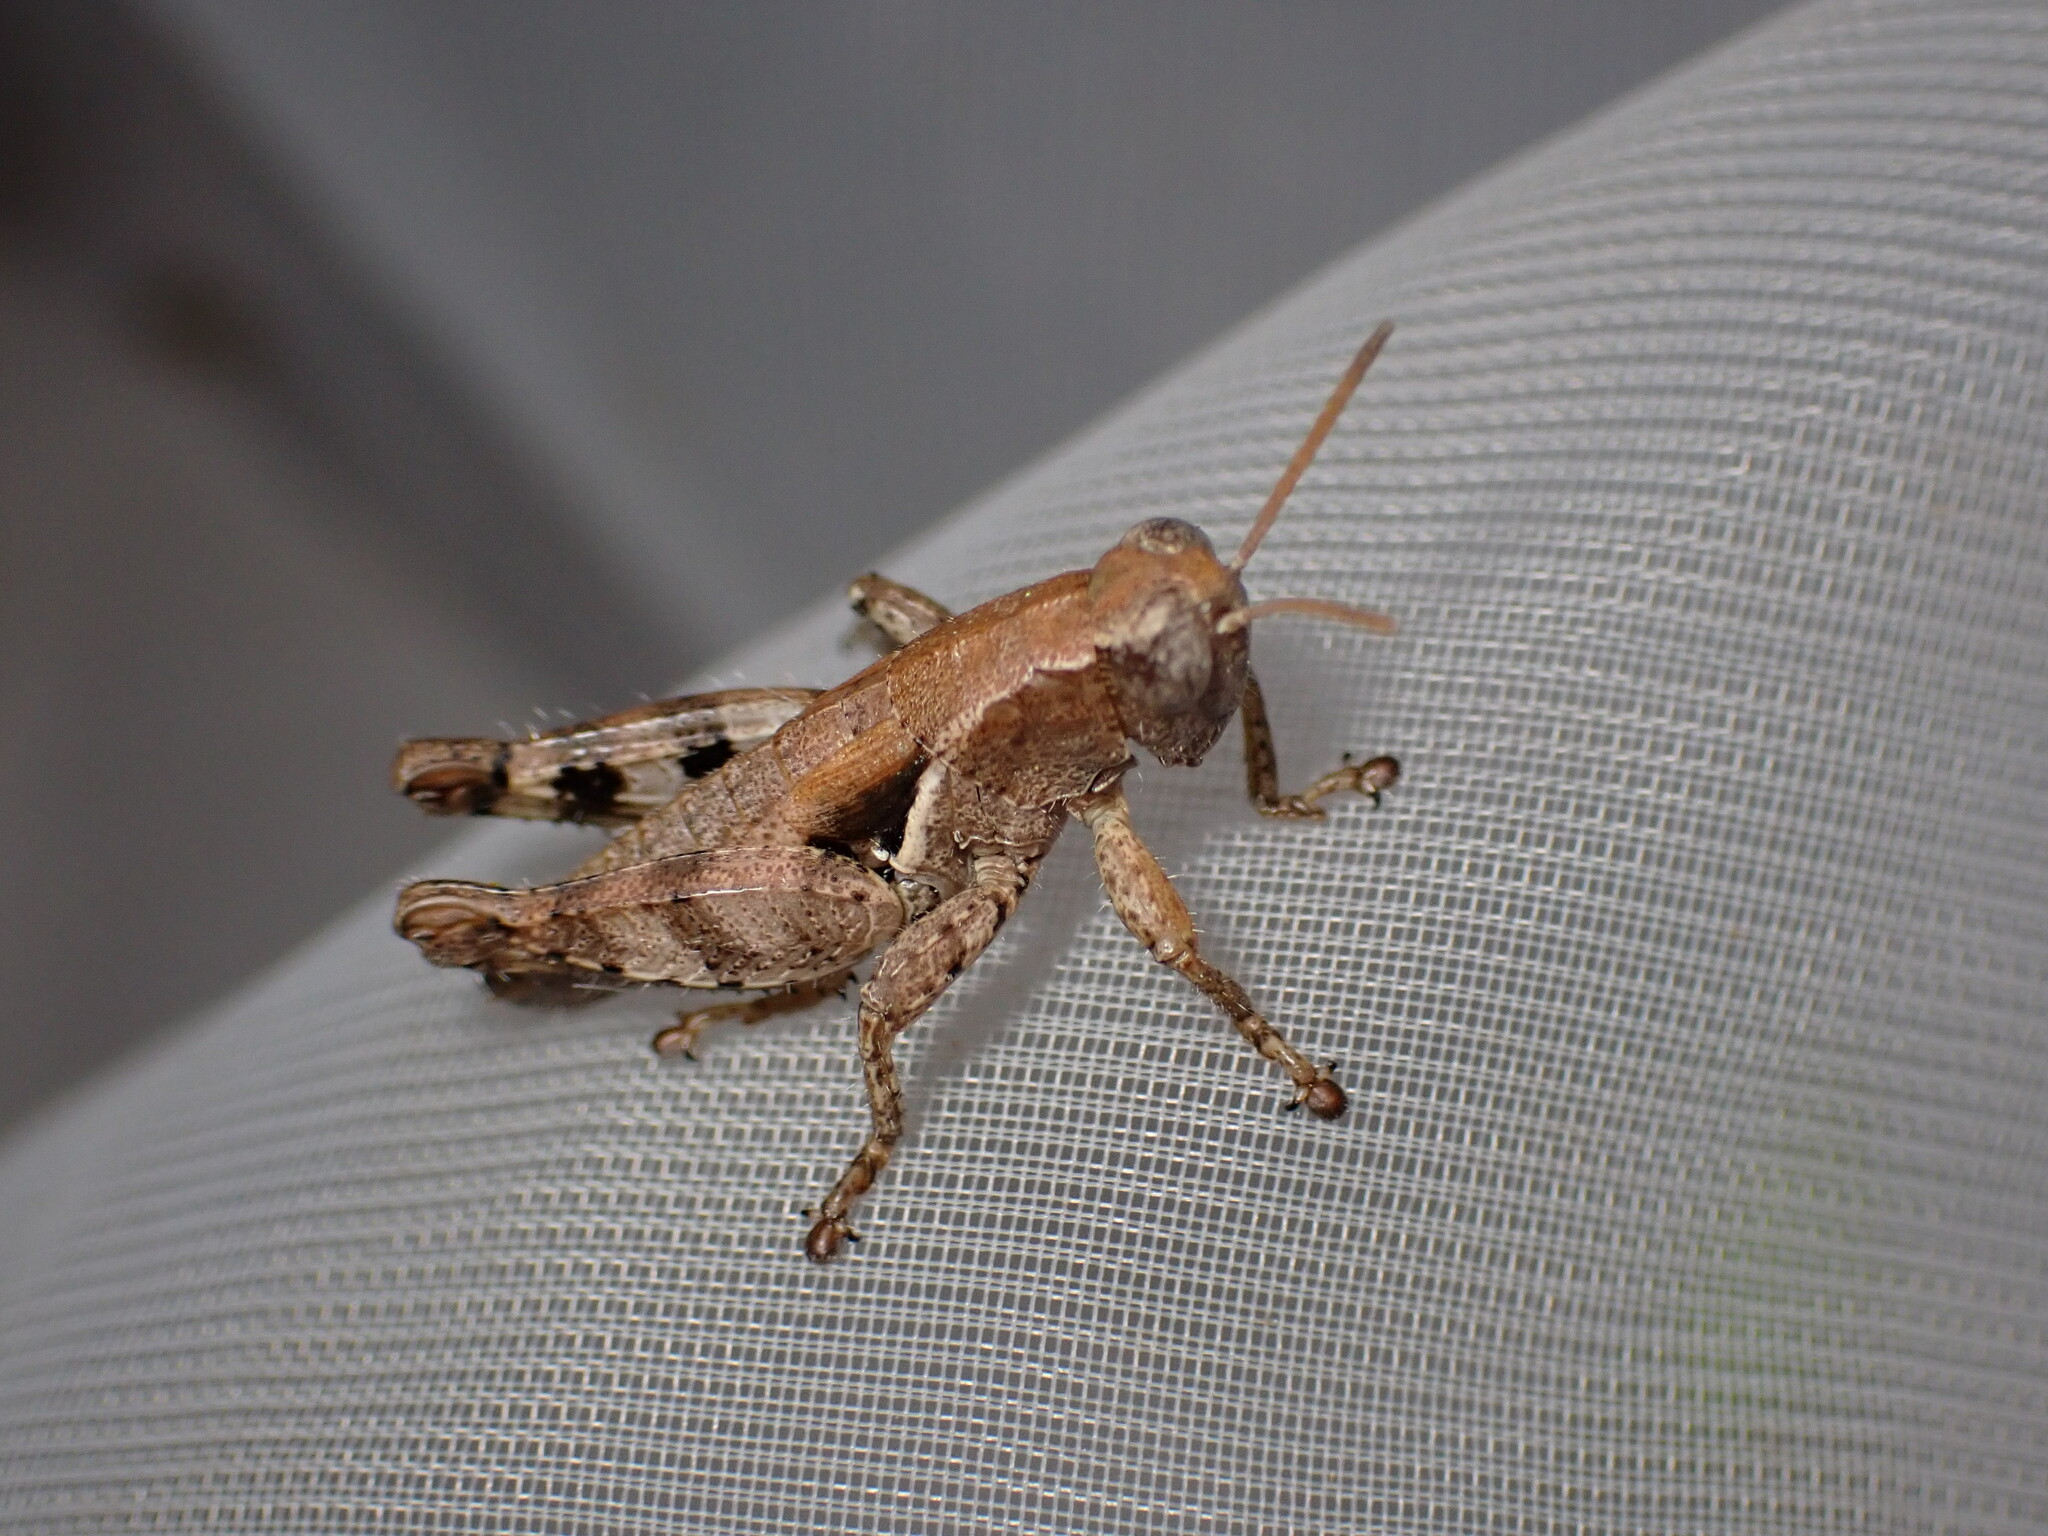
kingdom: Animalia
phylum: Arthropoda
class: Insecta
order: Orthoptera
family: Acrididae
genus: Pezotettix
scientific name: Pezotettix giornae
